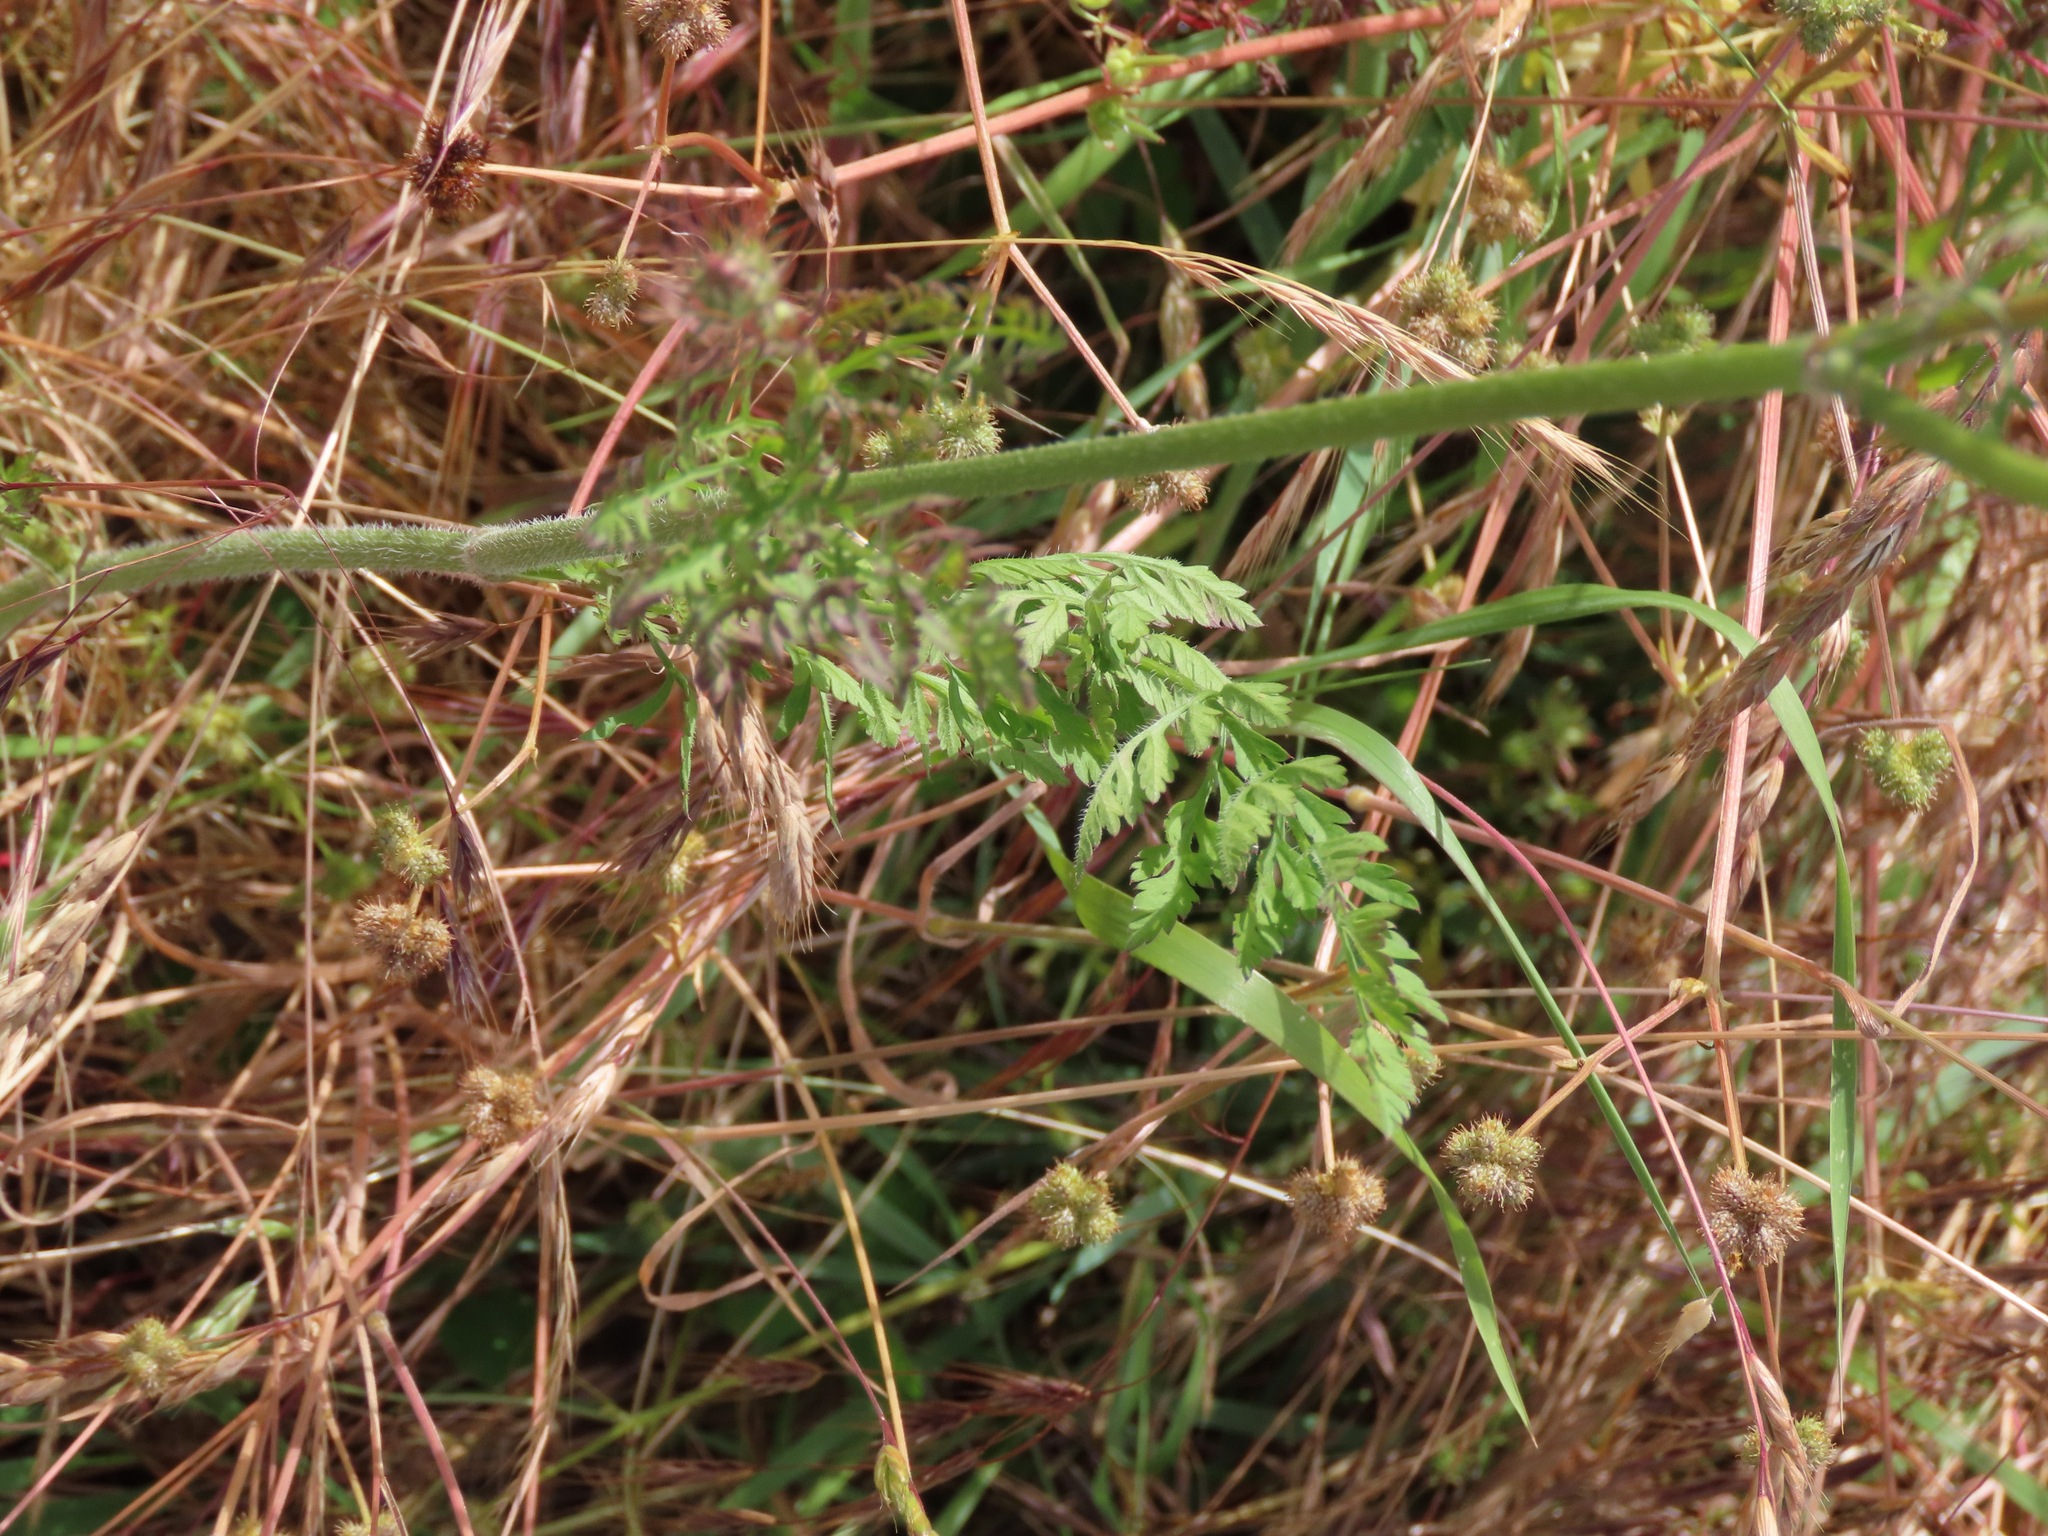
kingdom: Plantae
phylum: Tracheophyta
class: Magnoliopsida
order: Apiales
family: Apiaceae
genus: Daucus
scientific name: Daucus carota
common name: Wild carrot
